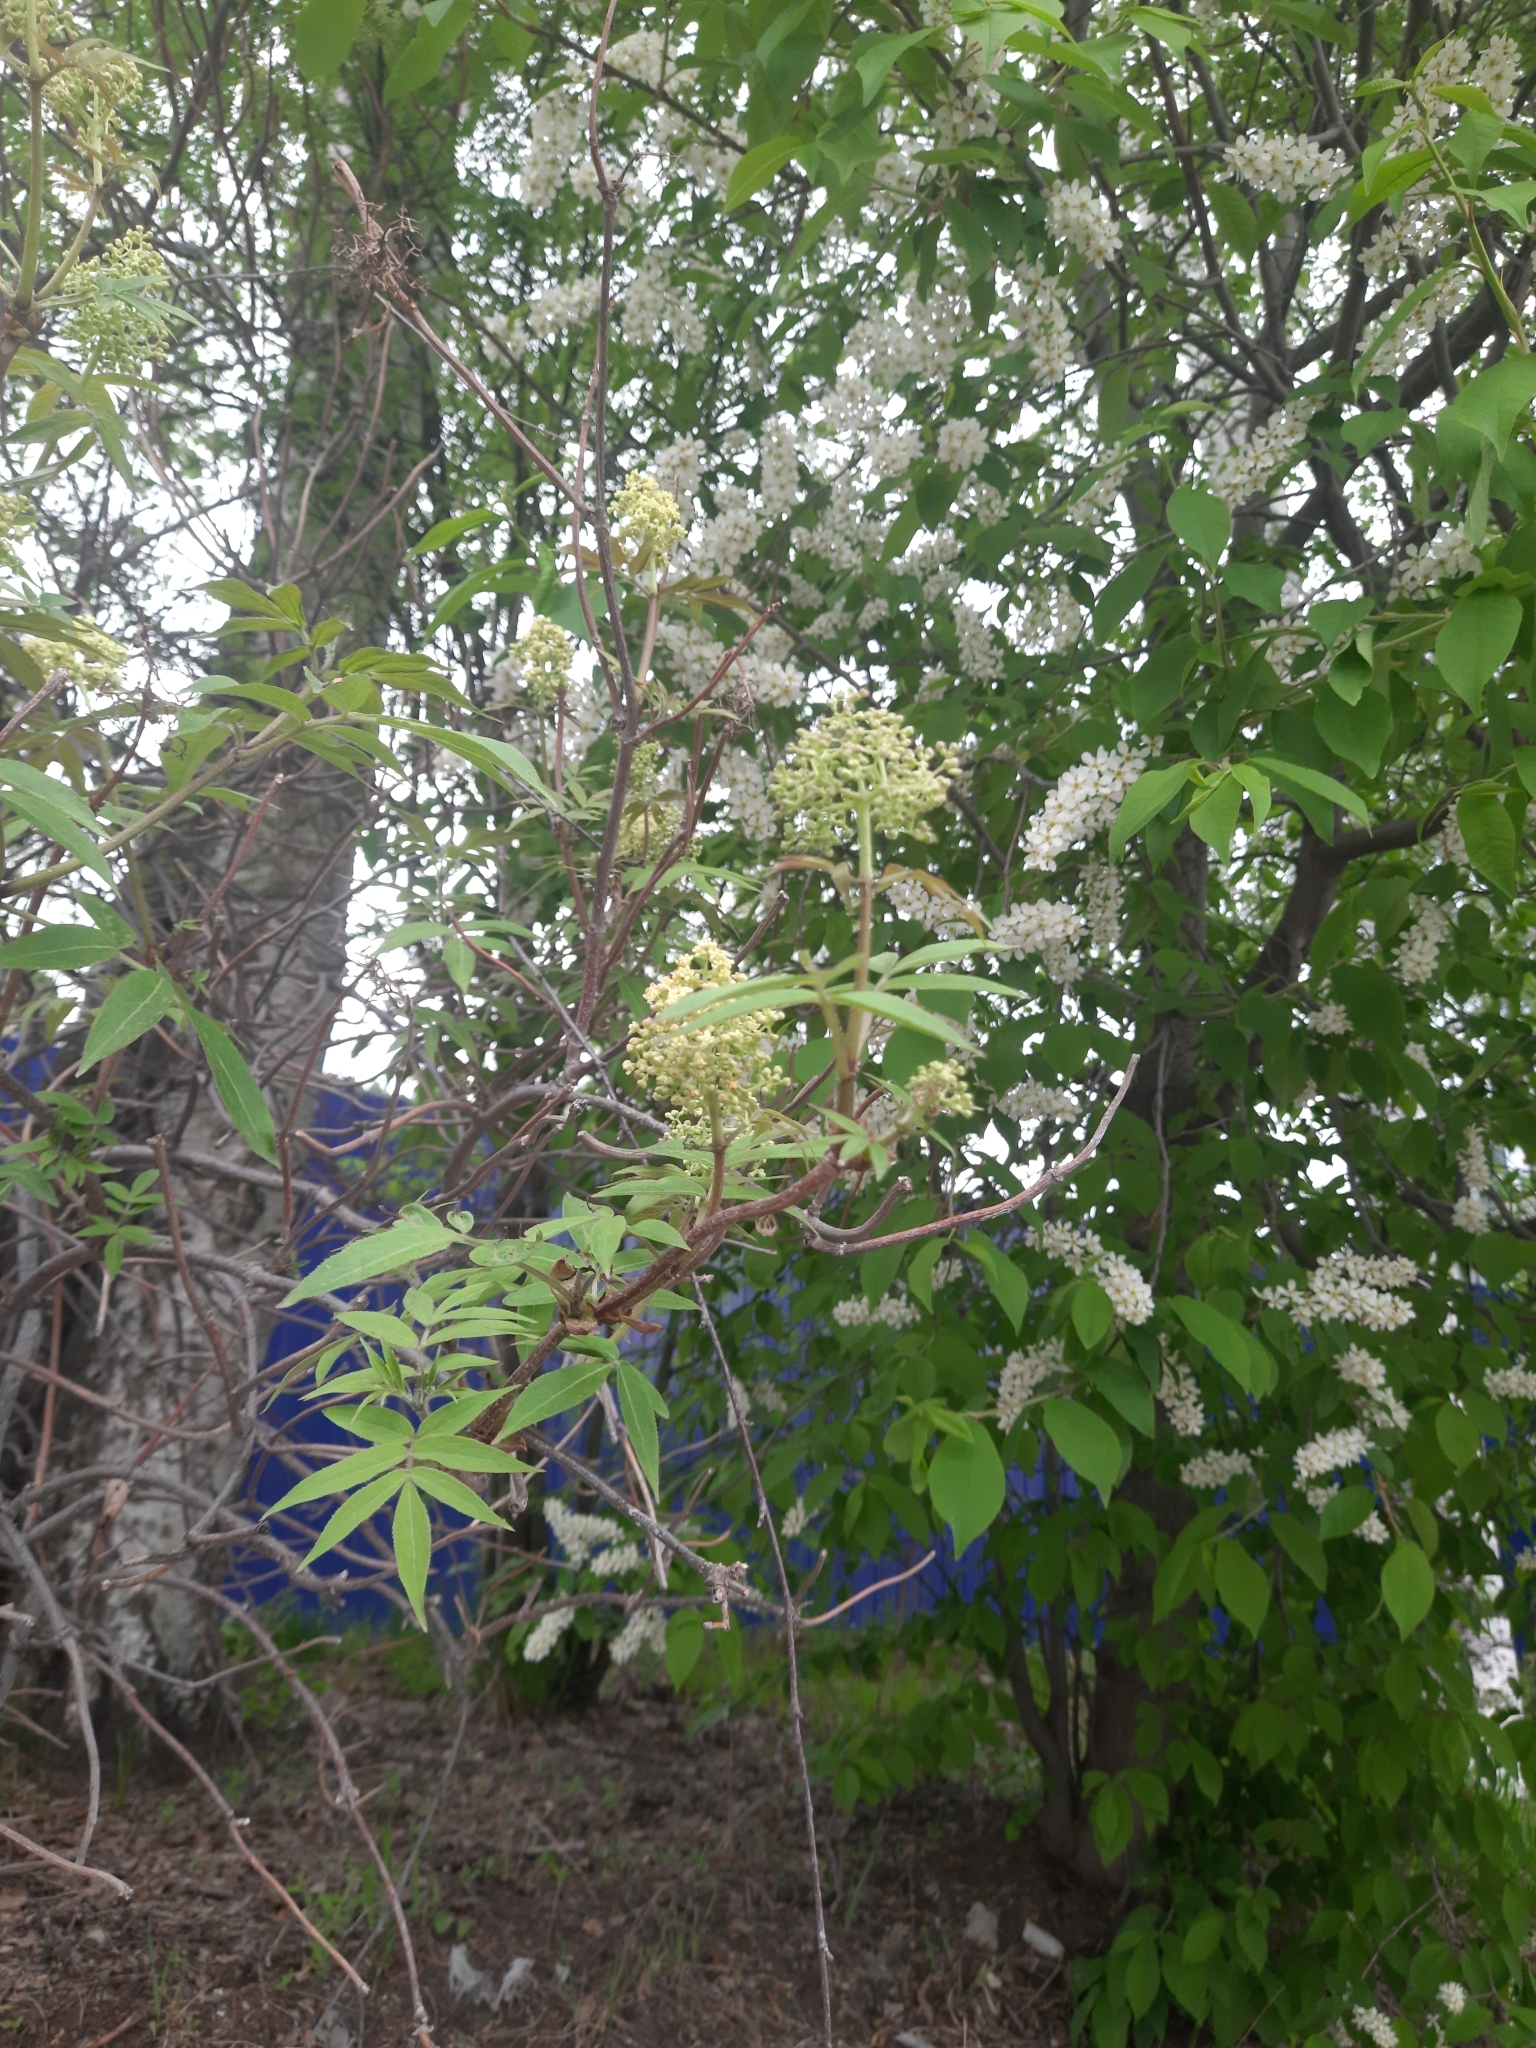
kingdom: Plantae
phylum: Tracheophyta
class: Magnoliopsida
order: Dipsacales
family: Viburnaceae
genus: Sambucus
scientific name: Sambucus sibirica
